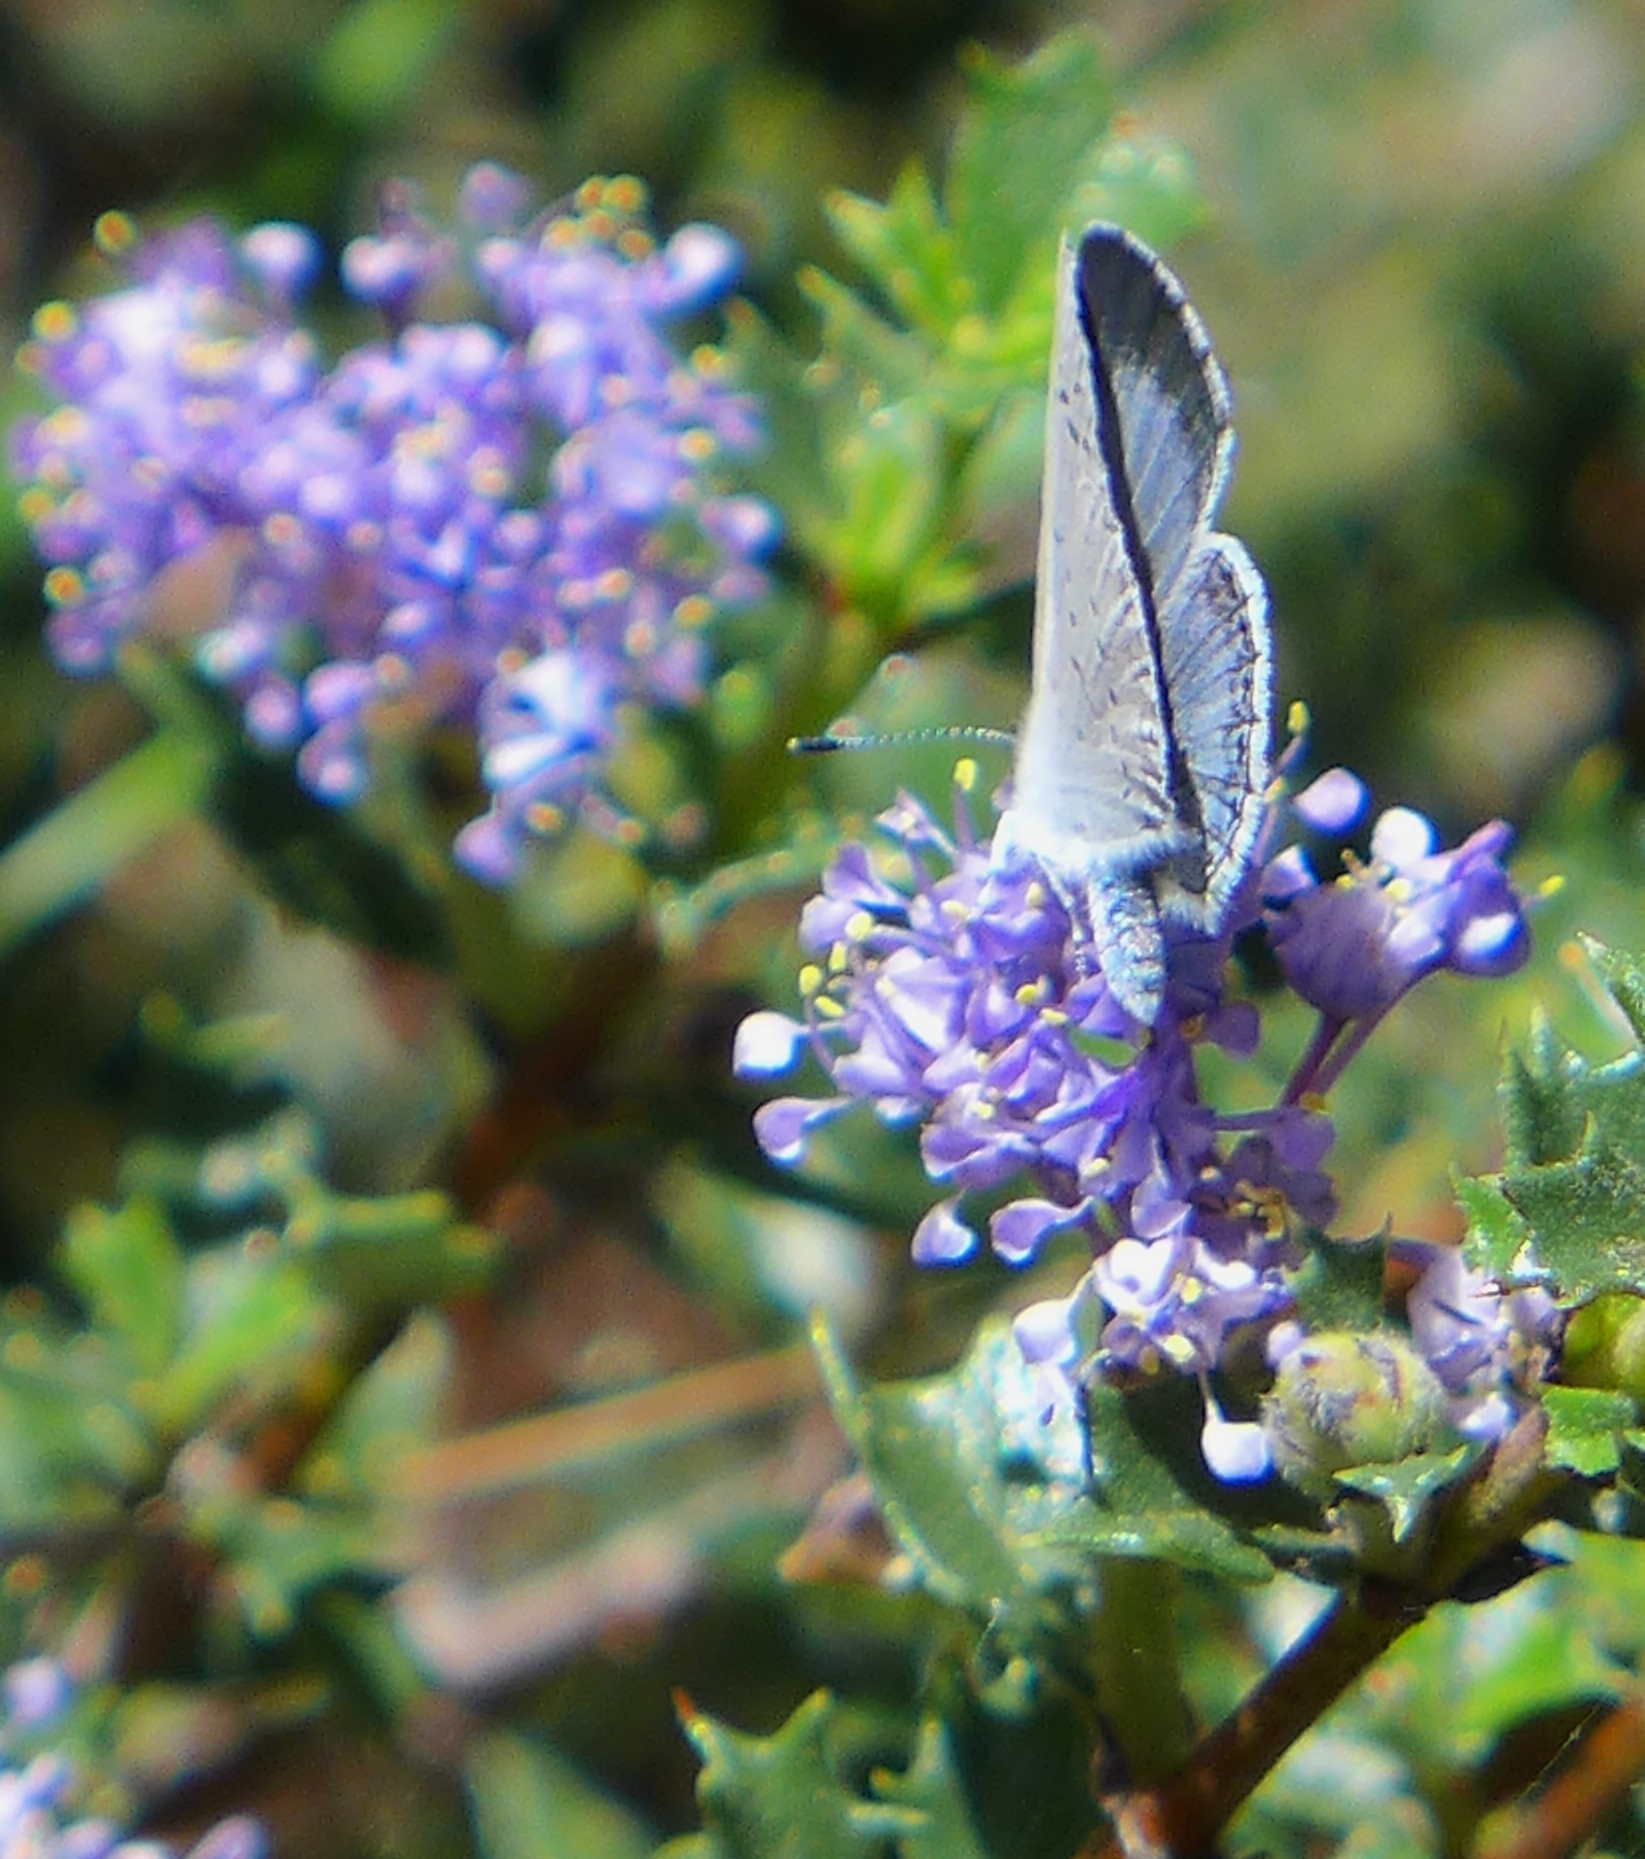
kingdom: Animalia
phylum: Arthropoda
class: Insecta
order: Lepidoptera
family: Lycaenidae
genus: Celastrina
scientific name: Celastrina ladon
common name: Spring azure
